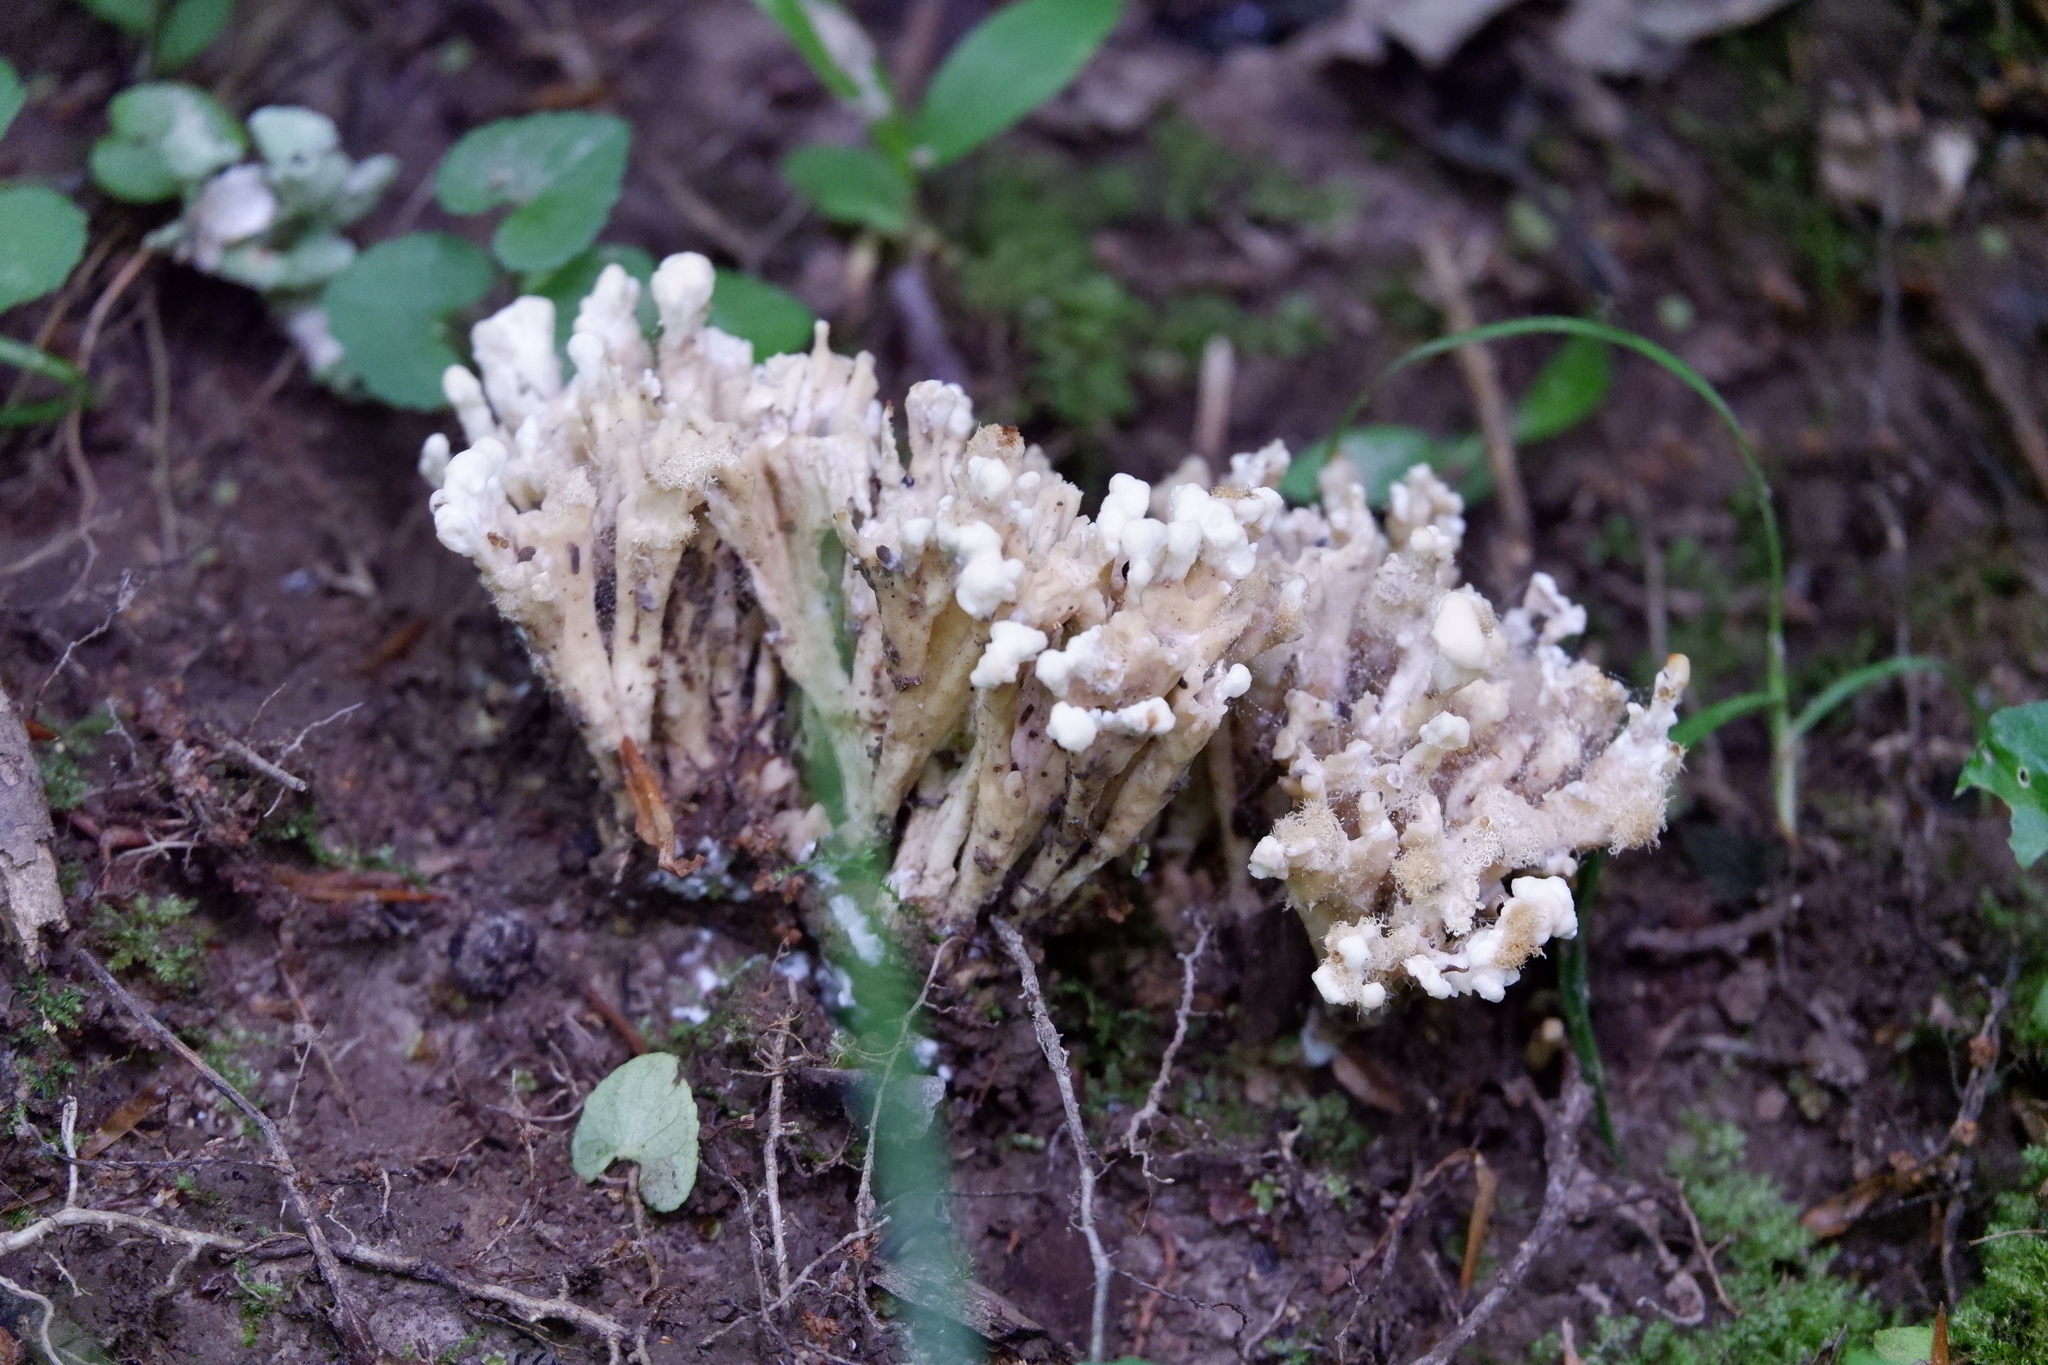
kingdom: Fungi
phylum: Basidiomycota
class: Agaricomycetes
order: Sebacinales
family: Sebacinaceae
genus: Sebacina
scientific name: Sebacina schweinitzii
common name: Jellied false coral fungus
